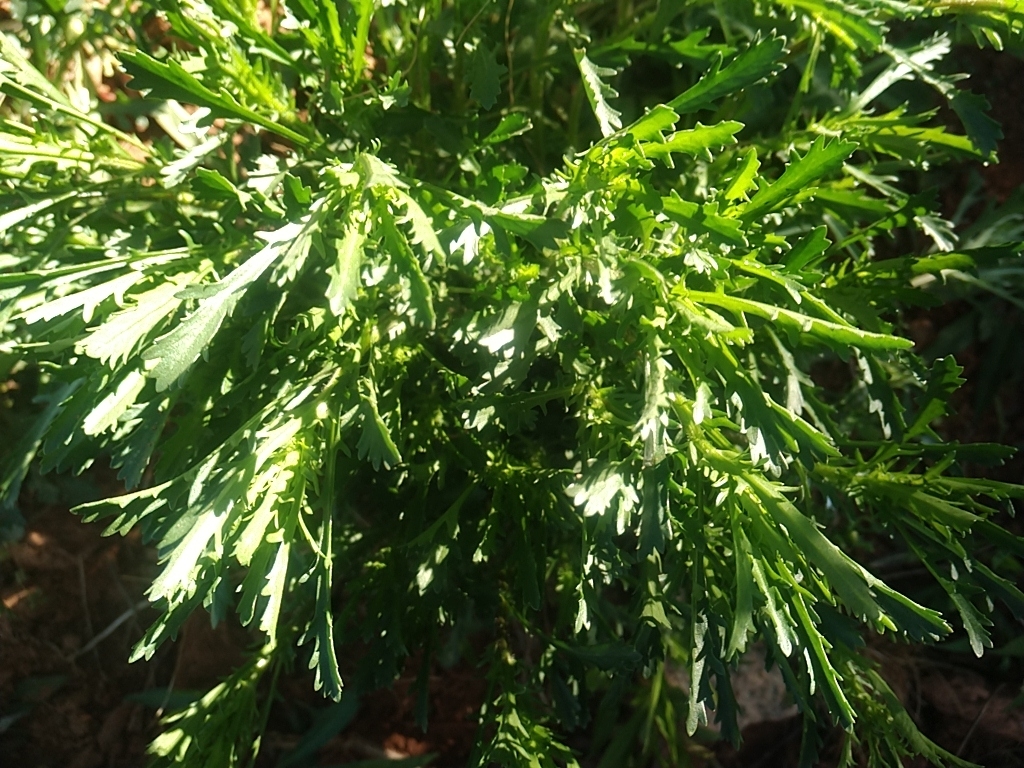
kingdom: Plantae
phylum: Tracheophyta
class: Magnoliopsida
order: Asterales
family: Asteraceae
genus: Leucanthemum
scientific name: Leucanthemum vulgare
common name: Oxeye daisy
